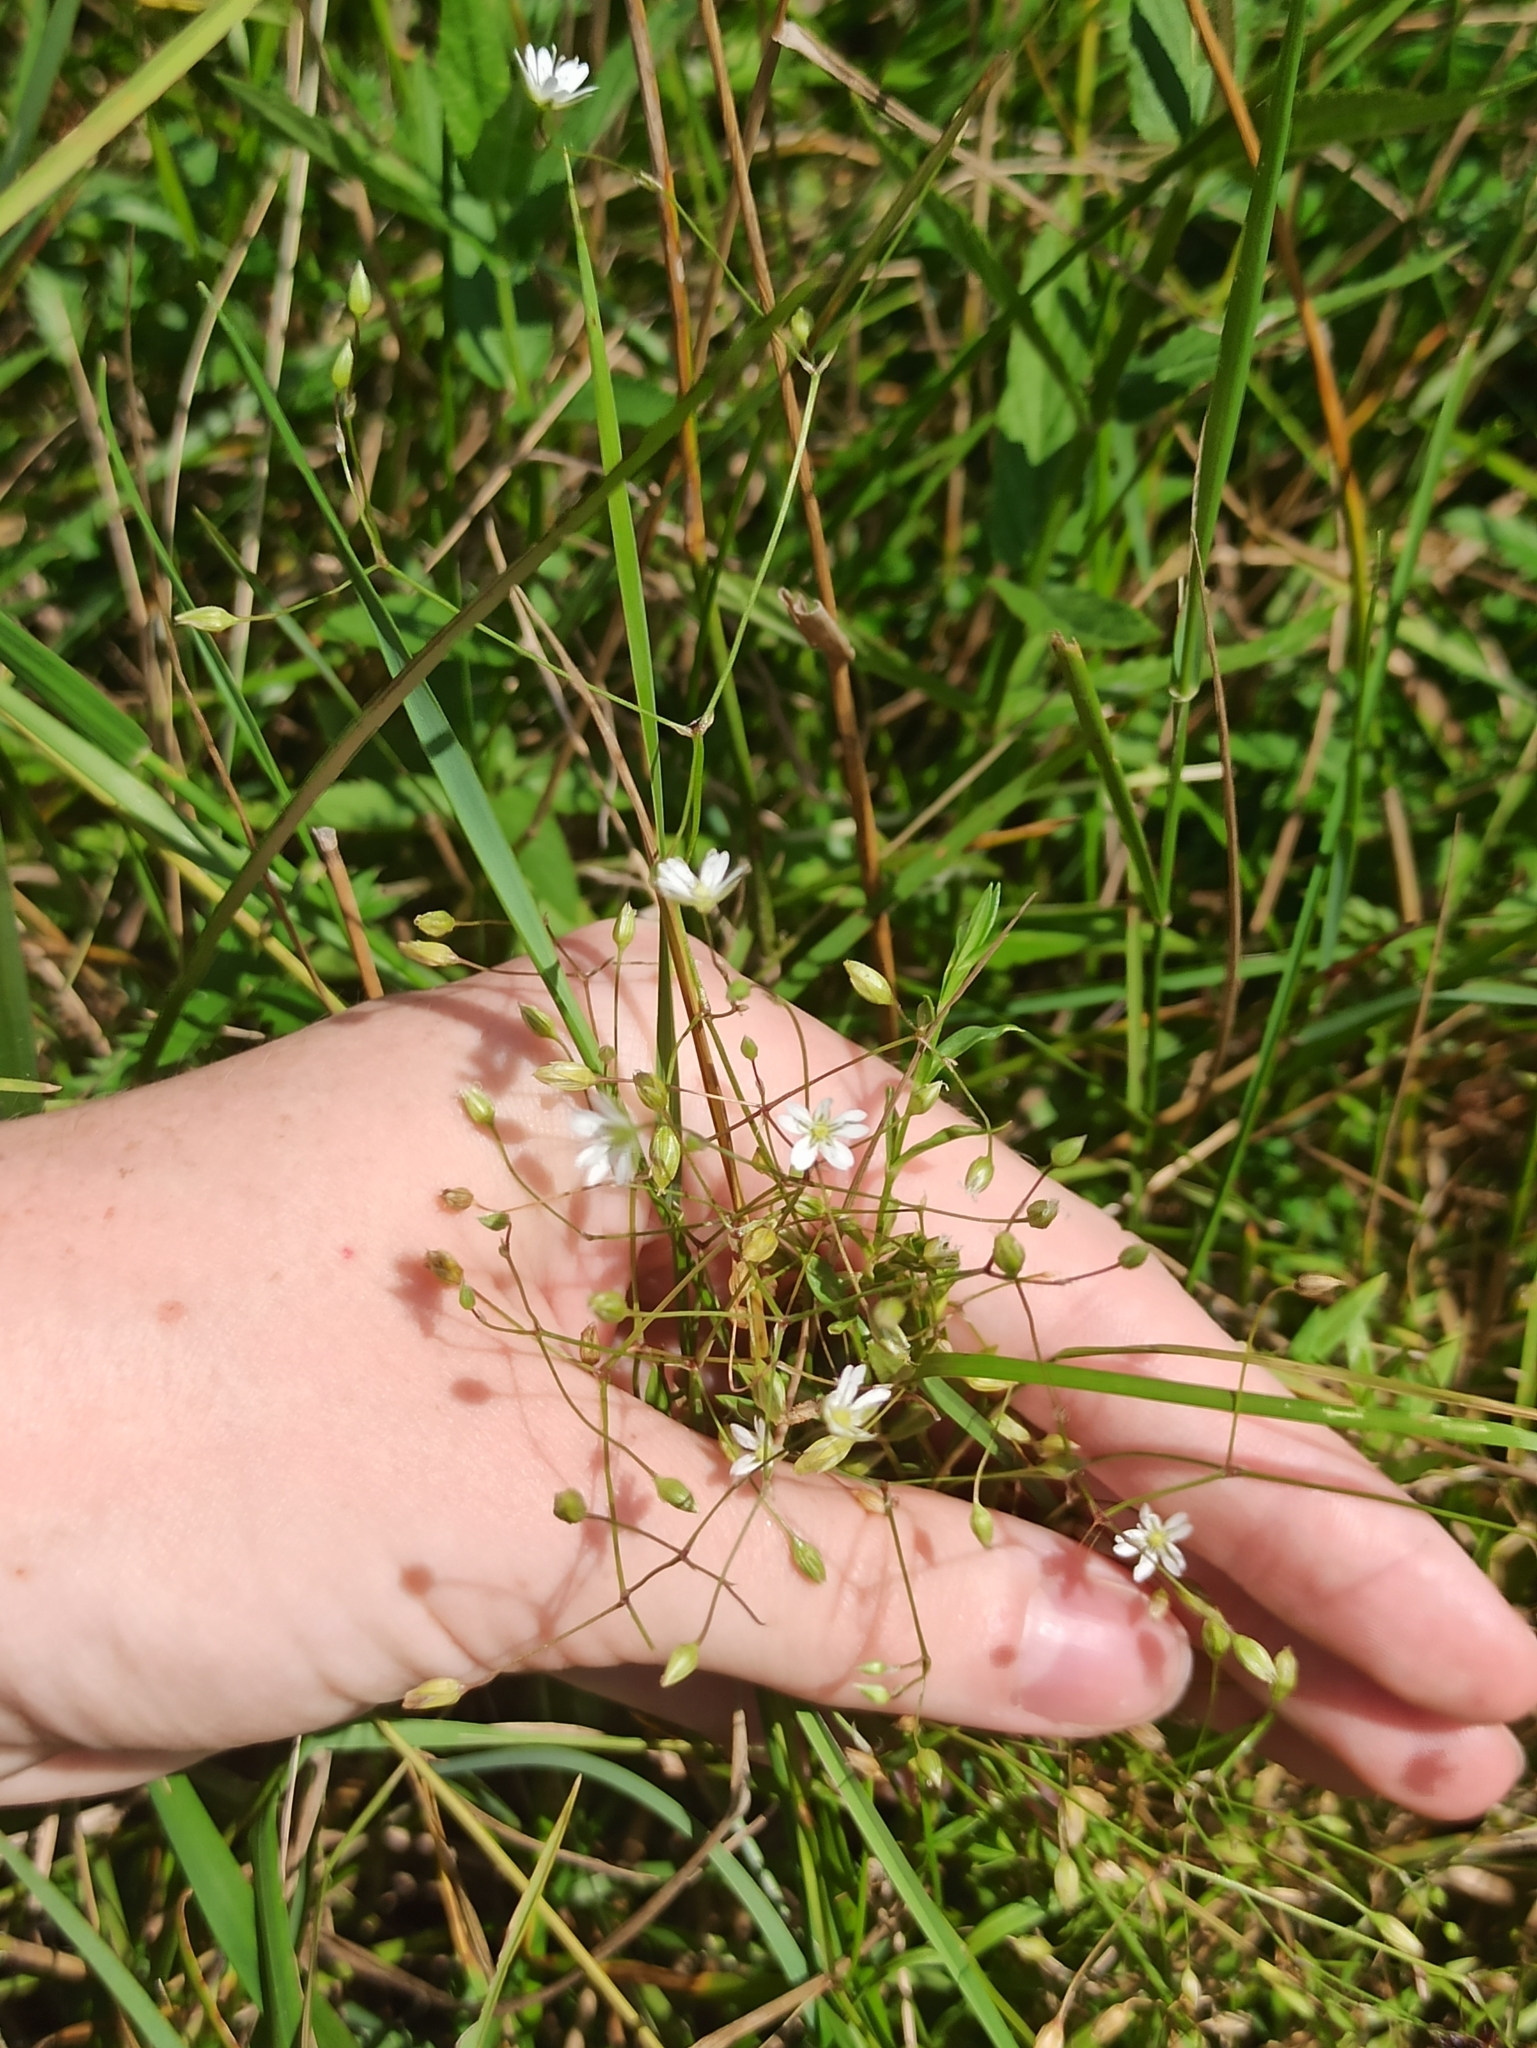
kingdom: Plantae
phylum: Tracheophyta
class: Magnoliopsida
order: Caryophyllales
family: Caryophyllaceae
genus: Stellaria
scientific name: Stellaria graminea
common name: Grass-like starwort
